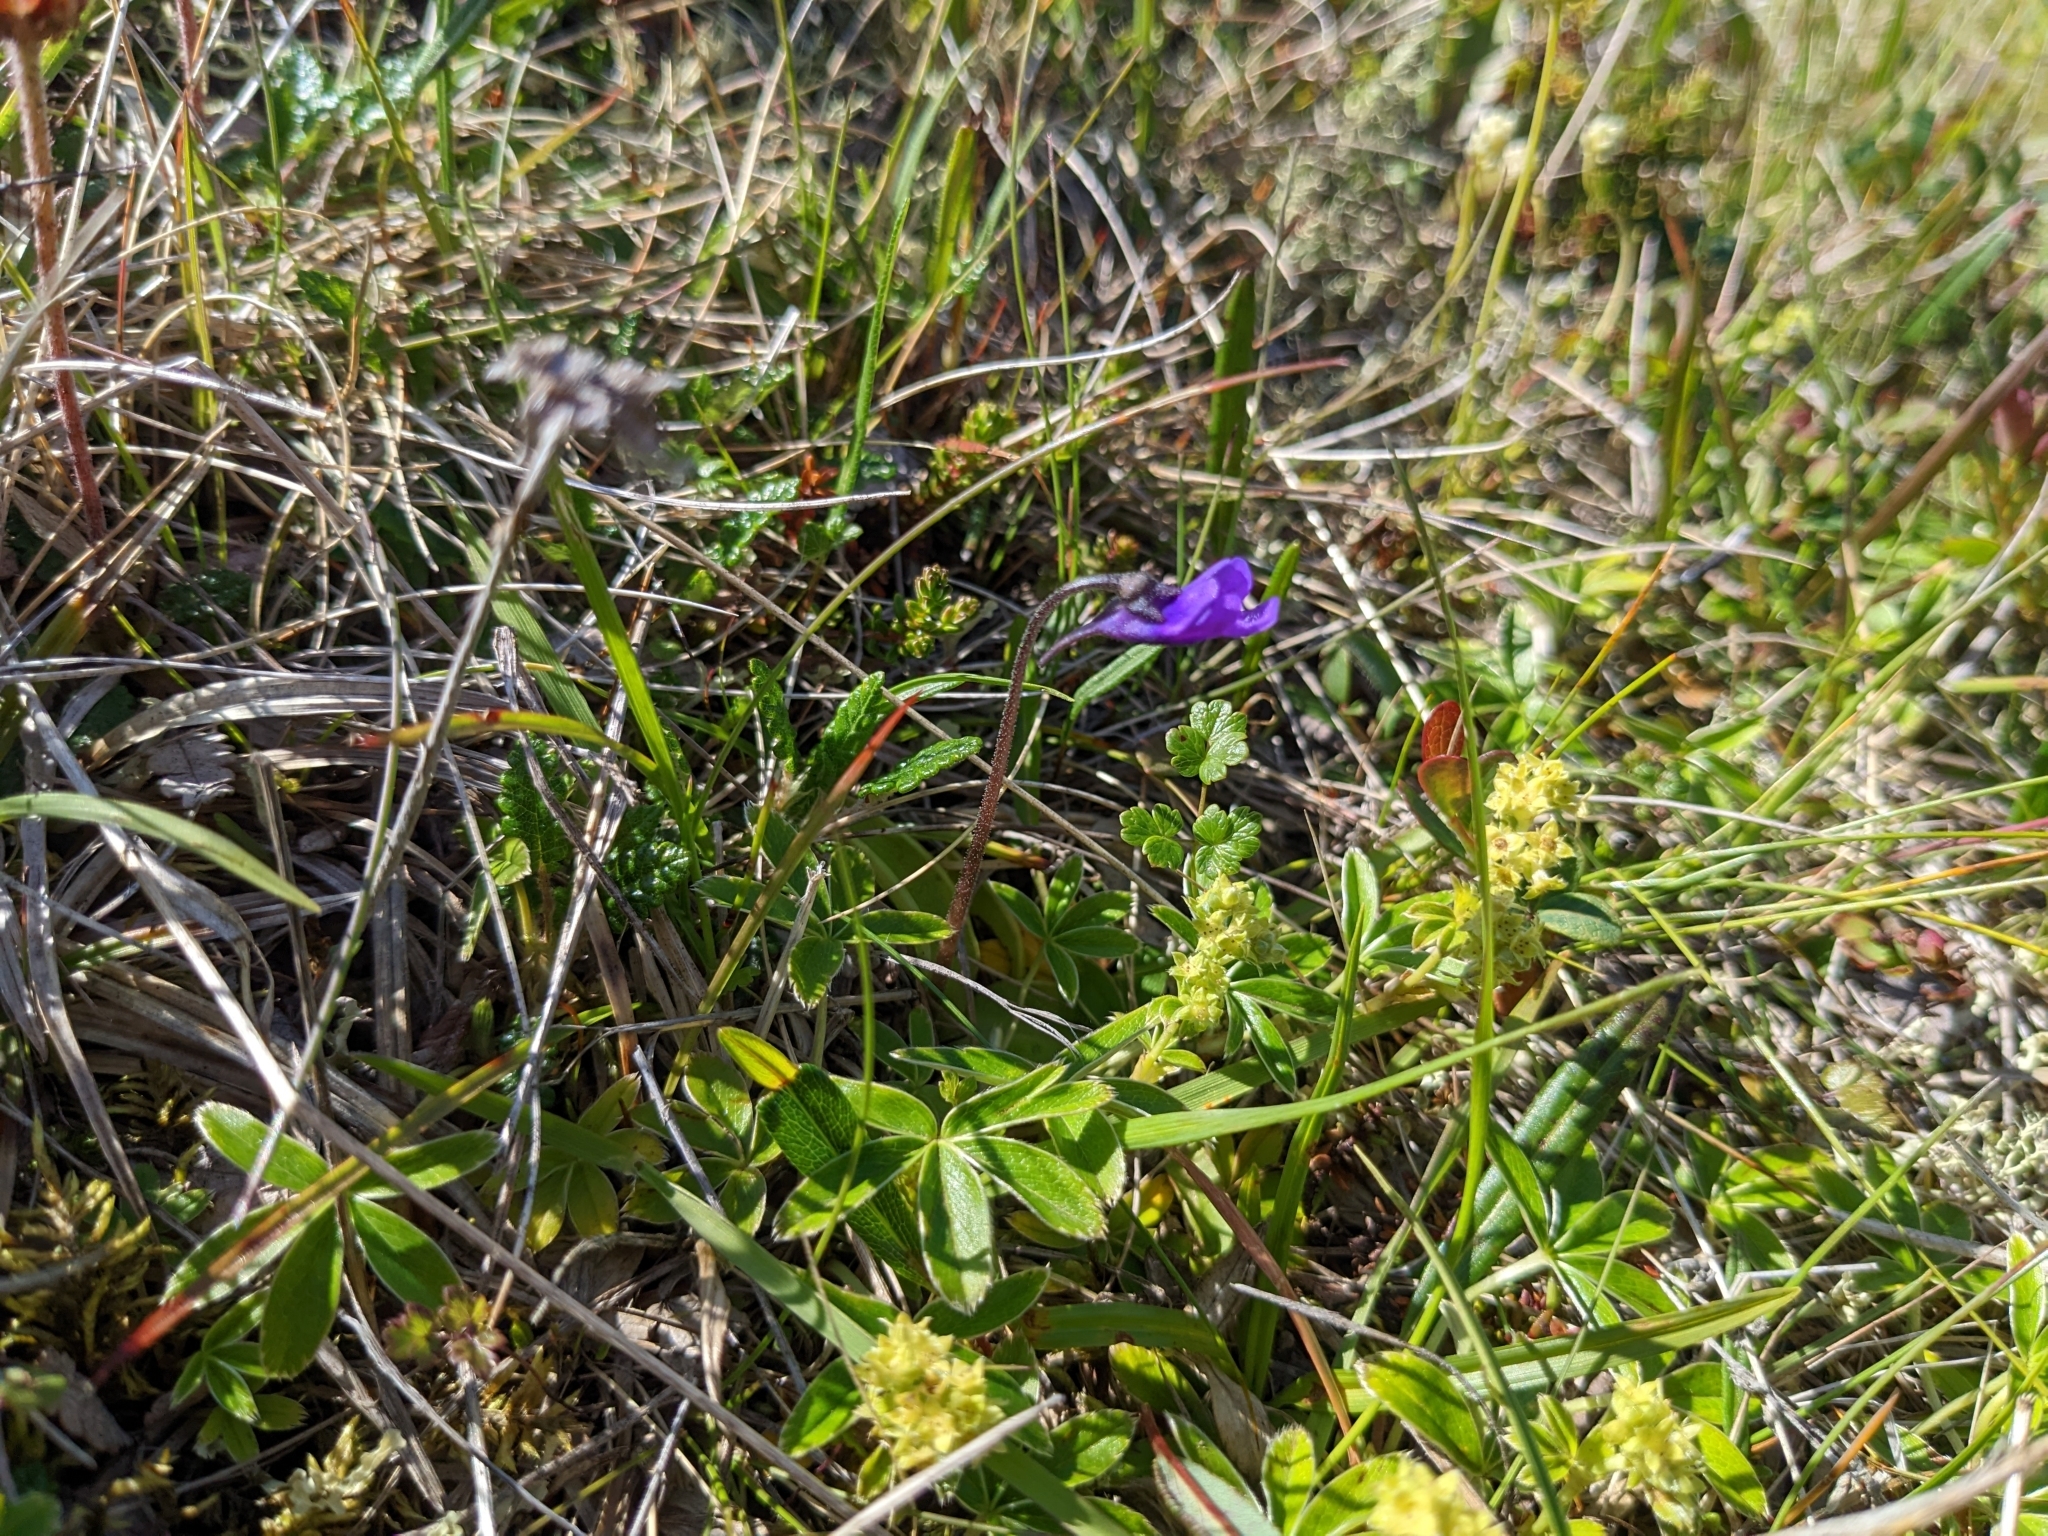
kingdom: Plantae
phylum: Tracheophyta
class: Magnoliopsida
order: Lamiales
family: Lentibulariaceae
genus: Pinguicula
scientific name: Pinguicula vulgaris
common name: Common butterwort
